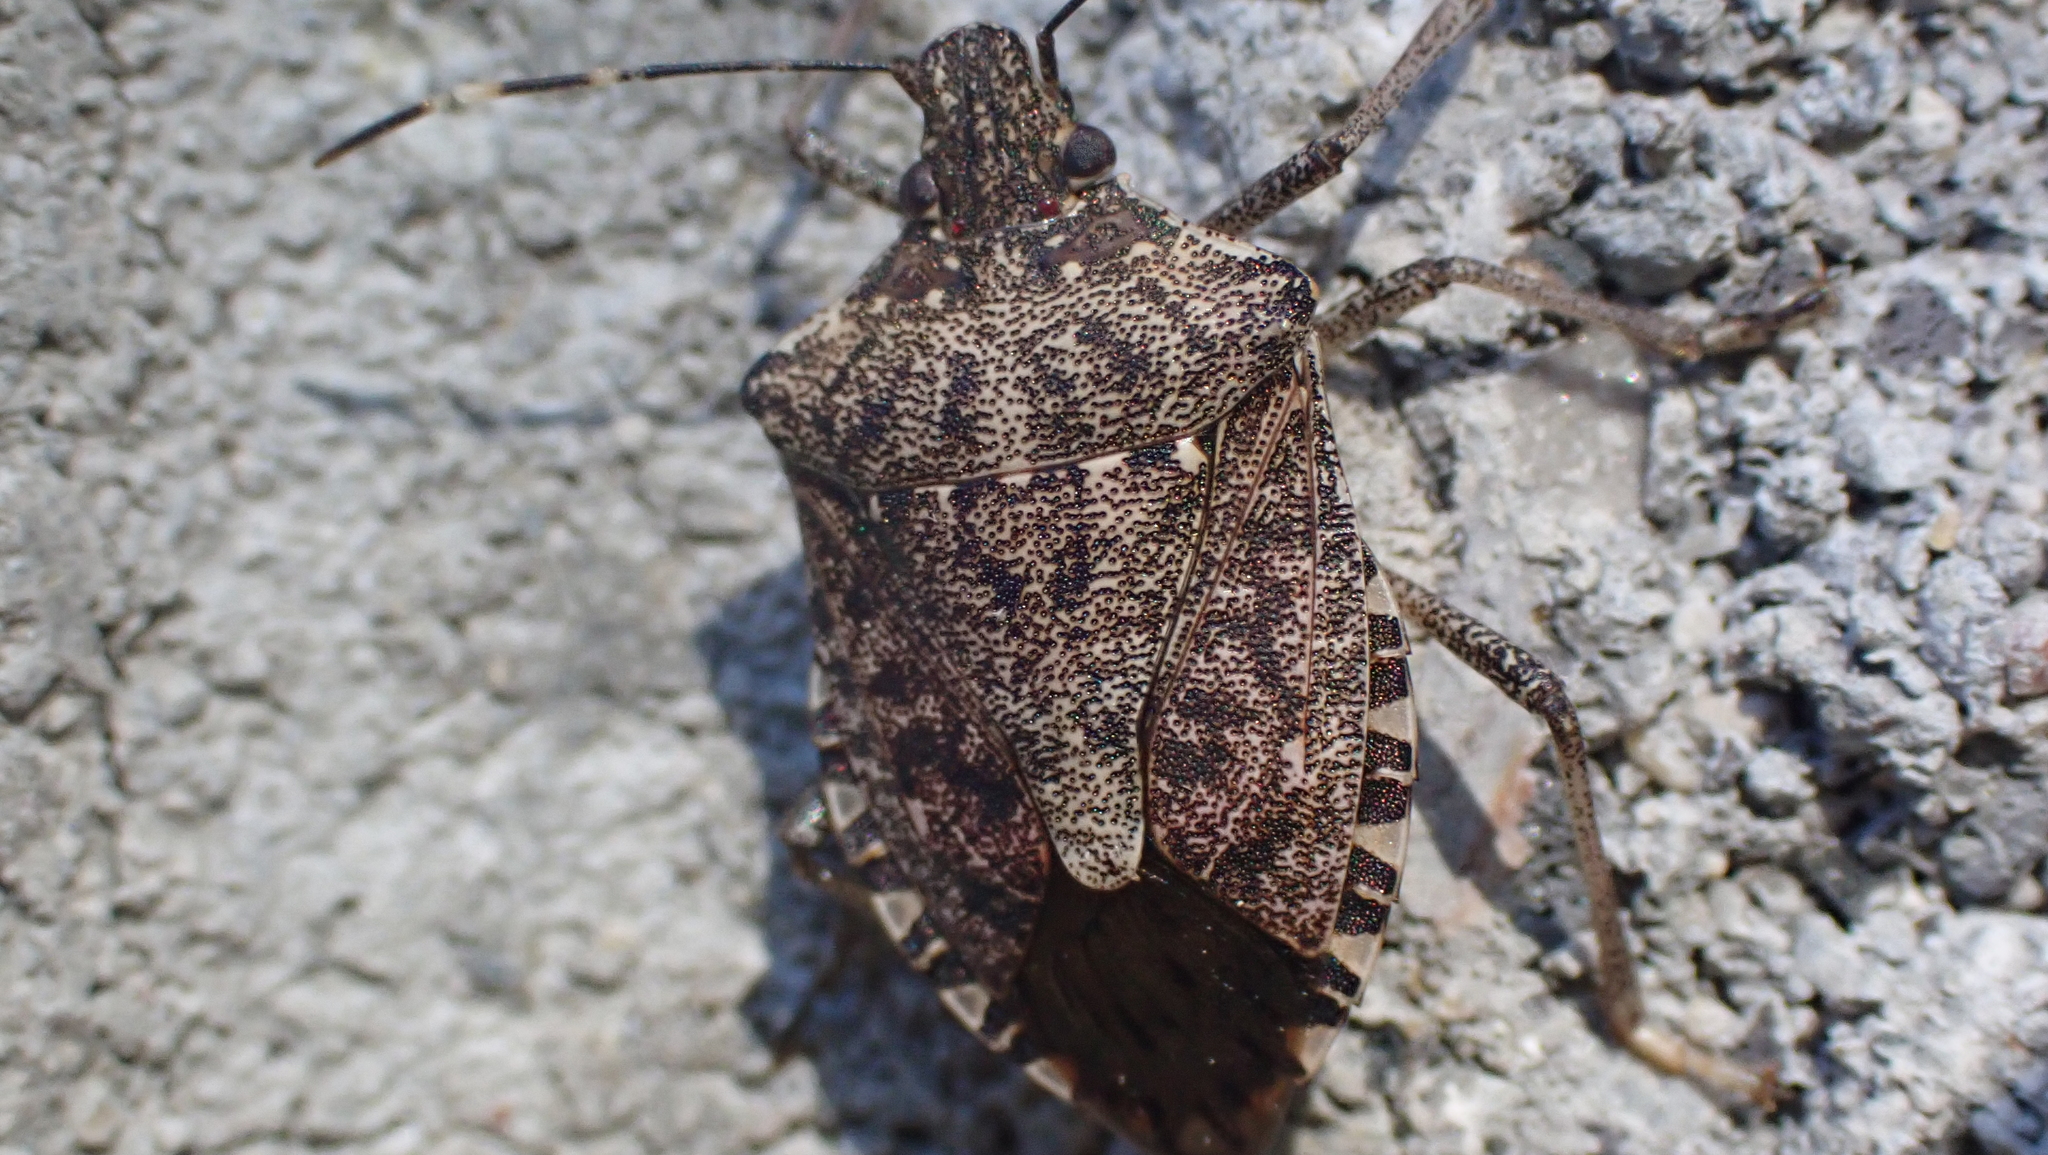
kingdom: Animalia
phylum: Arthropoda
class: Insecta
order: Hemiptera
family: Pentatomidae
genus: Halyomorpha
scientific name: Halyomorpha halys
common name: Brown marmorated stink bug
